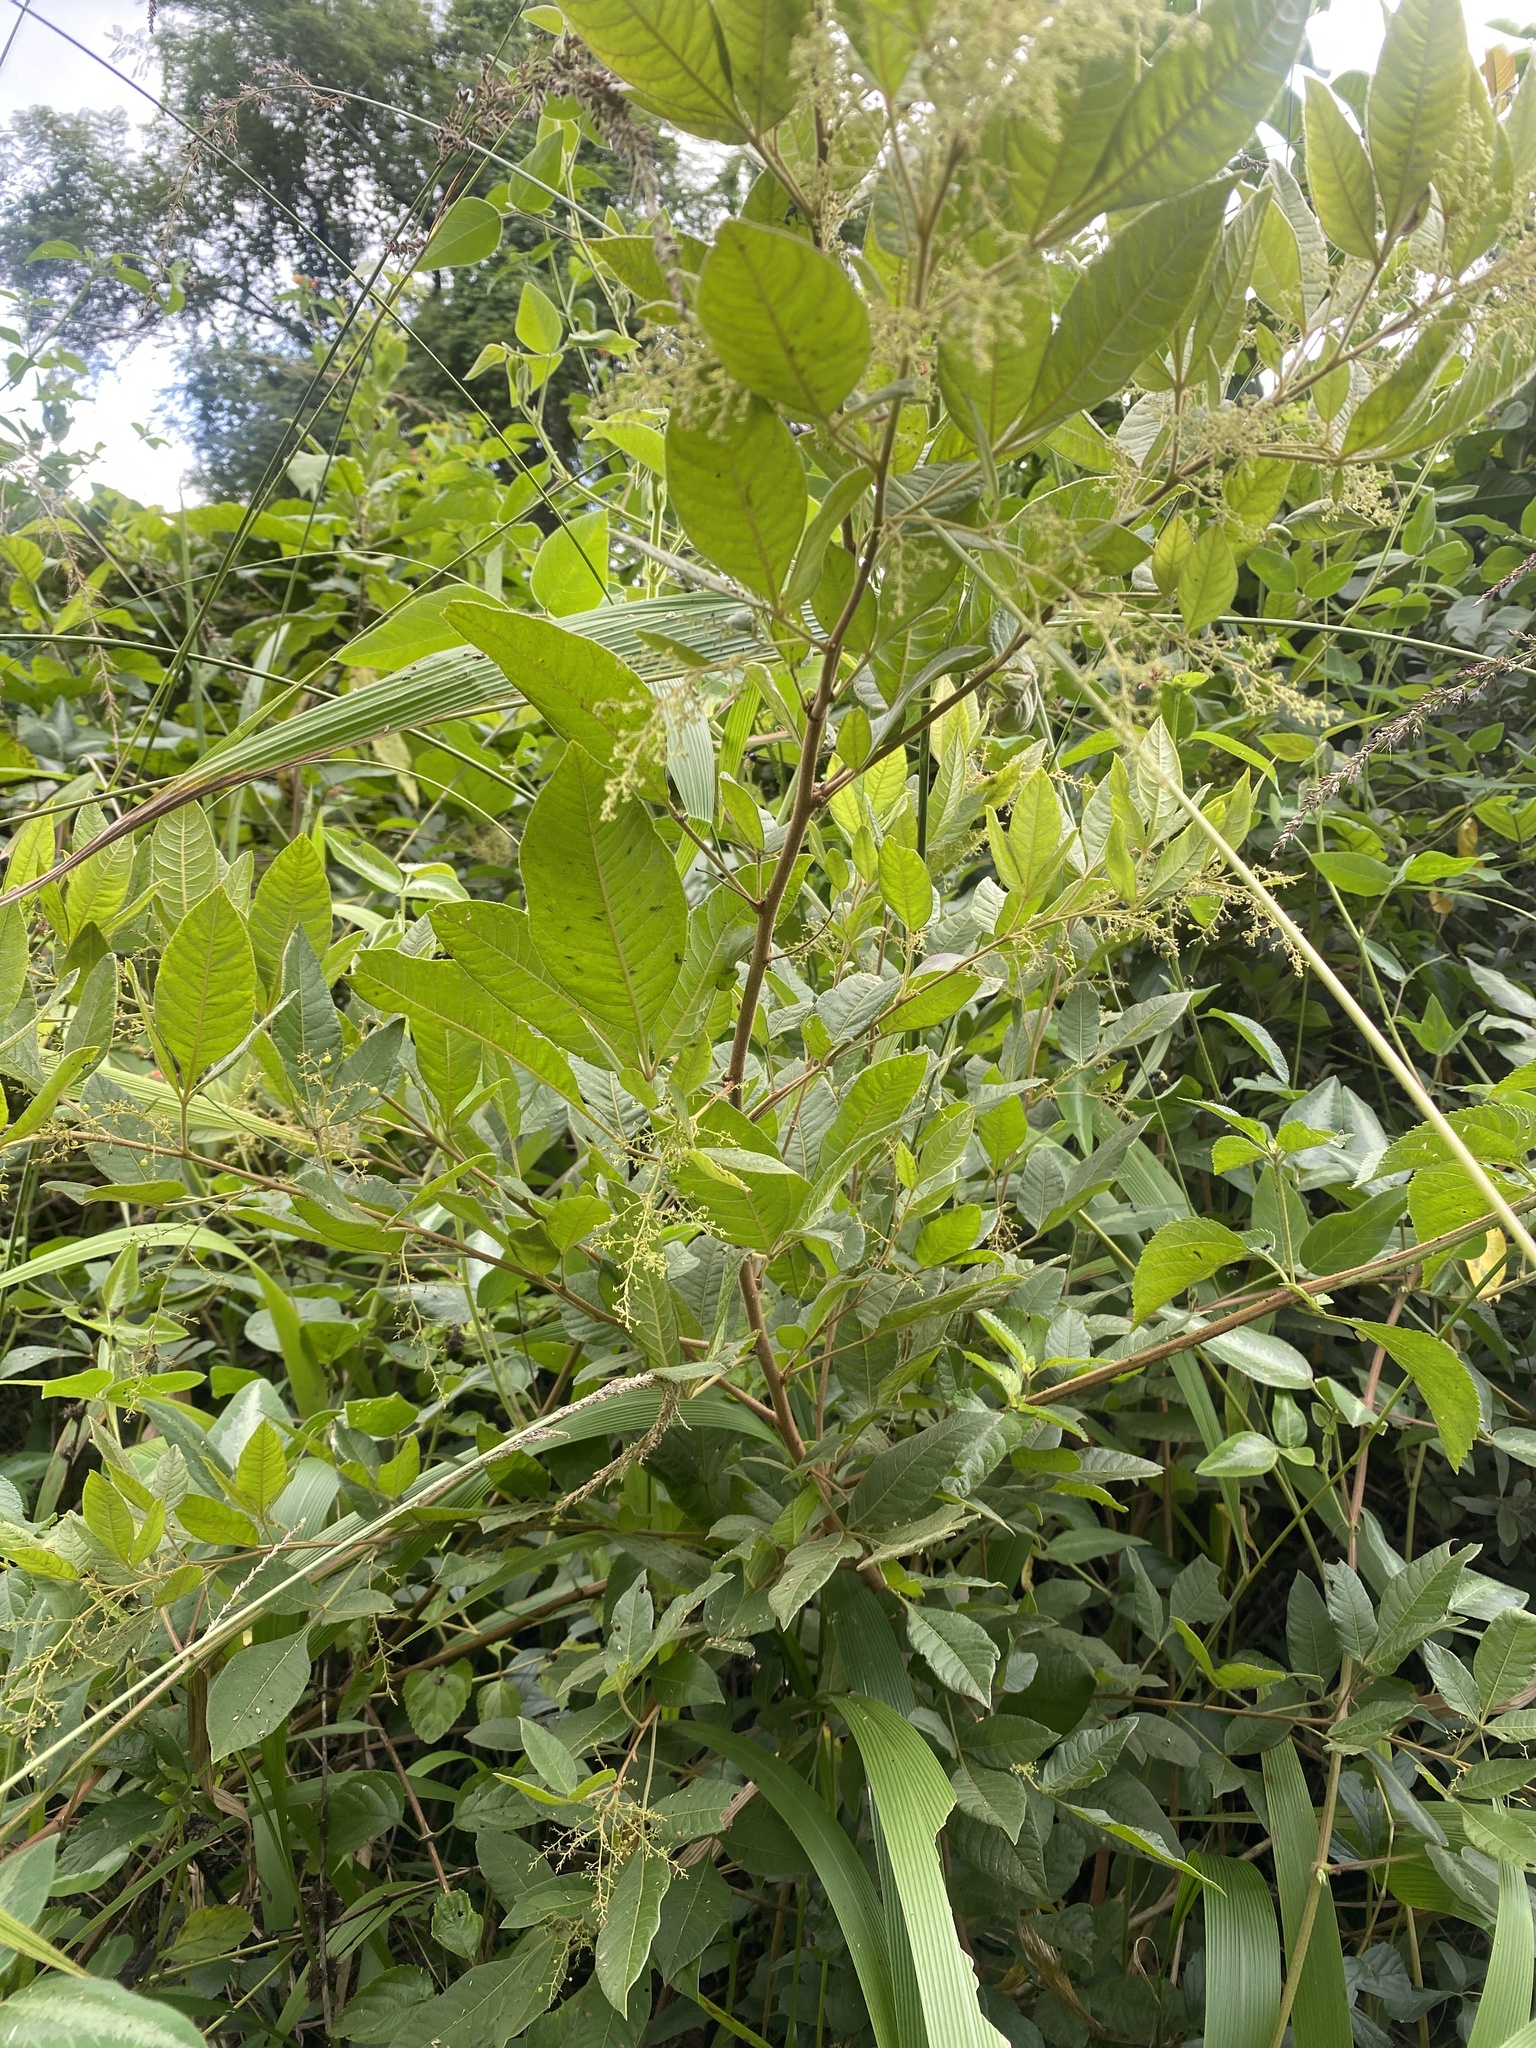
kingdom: Plantae
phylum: Tracheophyta
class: Magnoliopsida
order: Sapindales
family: Anacardiaceae
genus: Searsia
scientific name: Searsia pyroides
